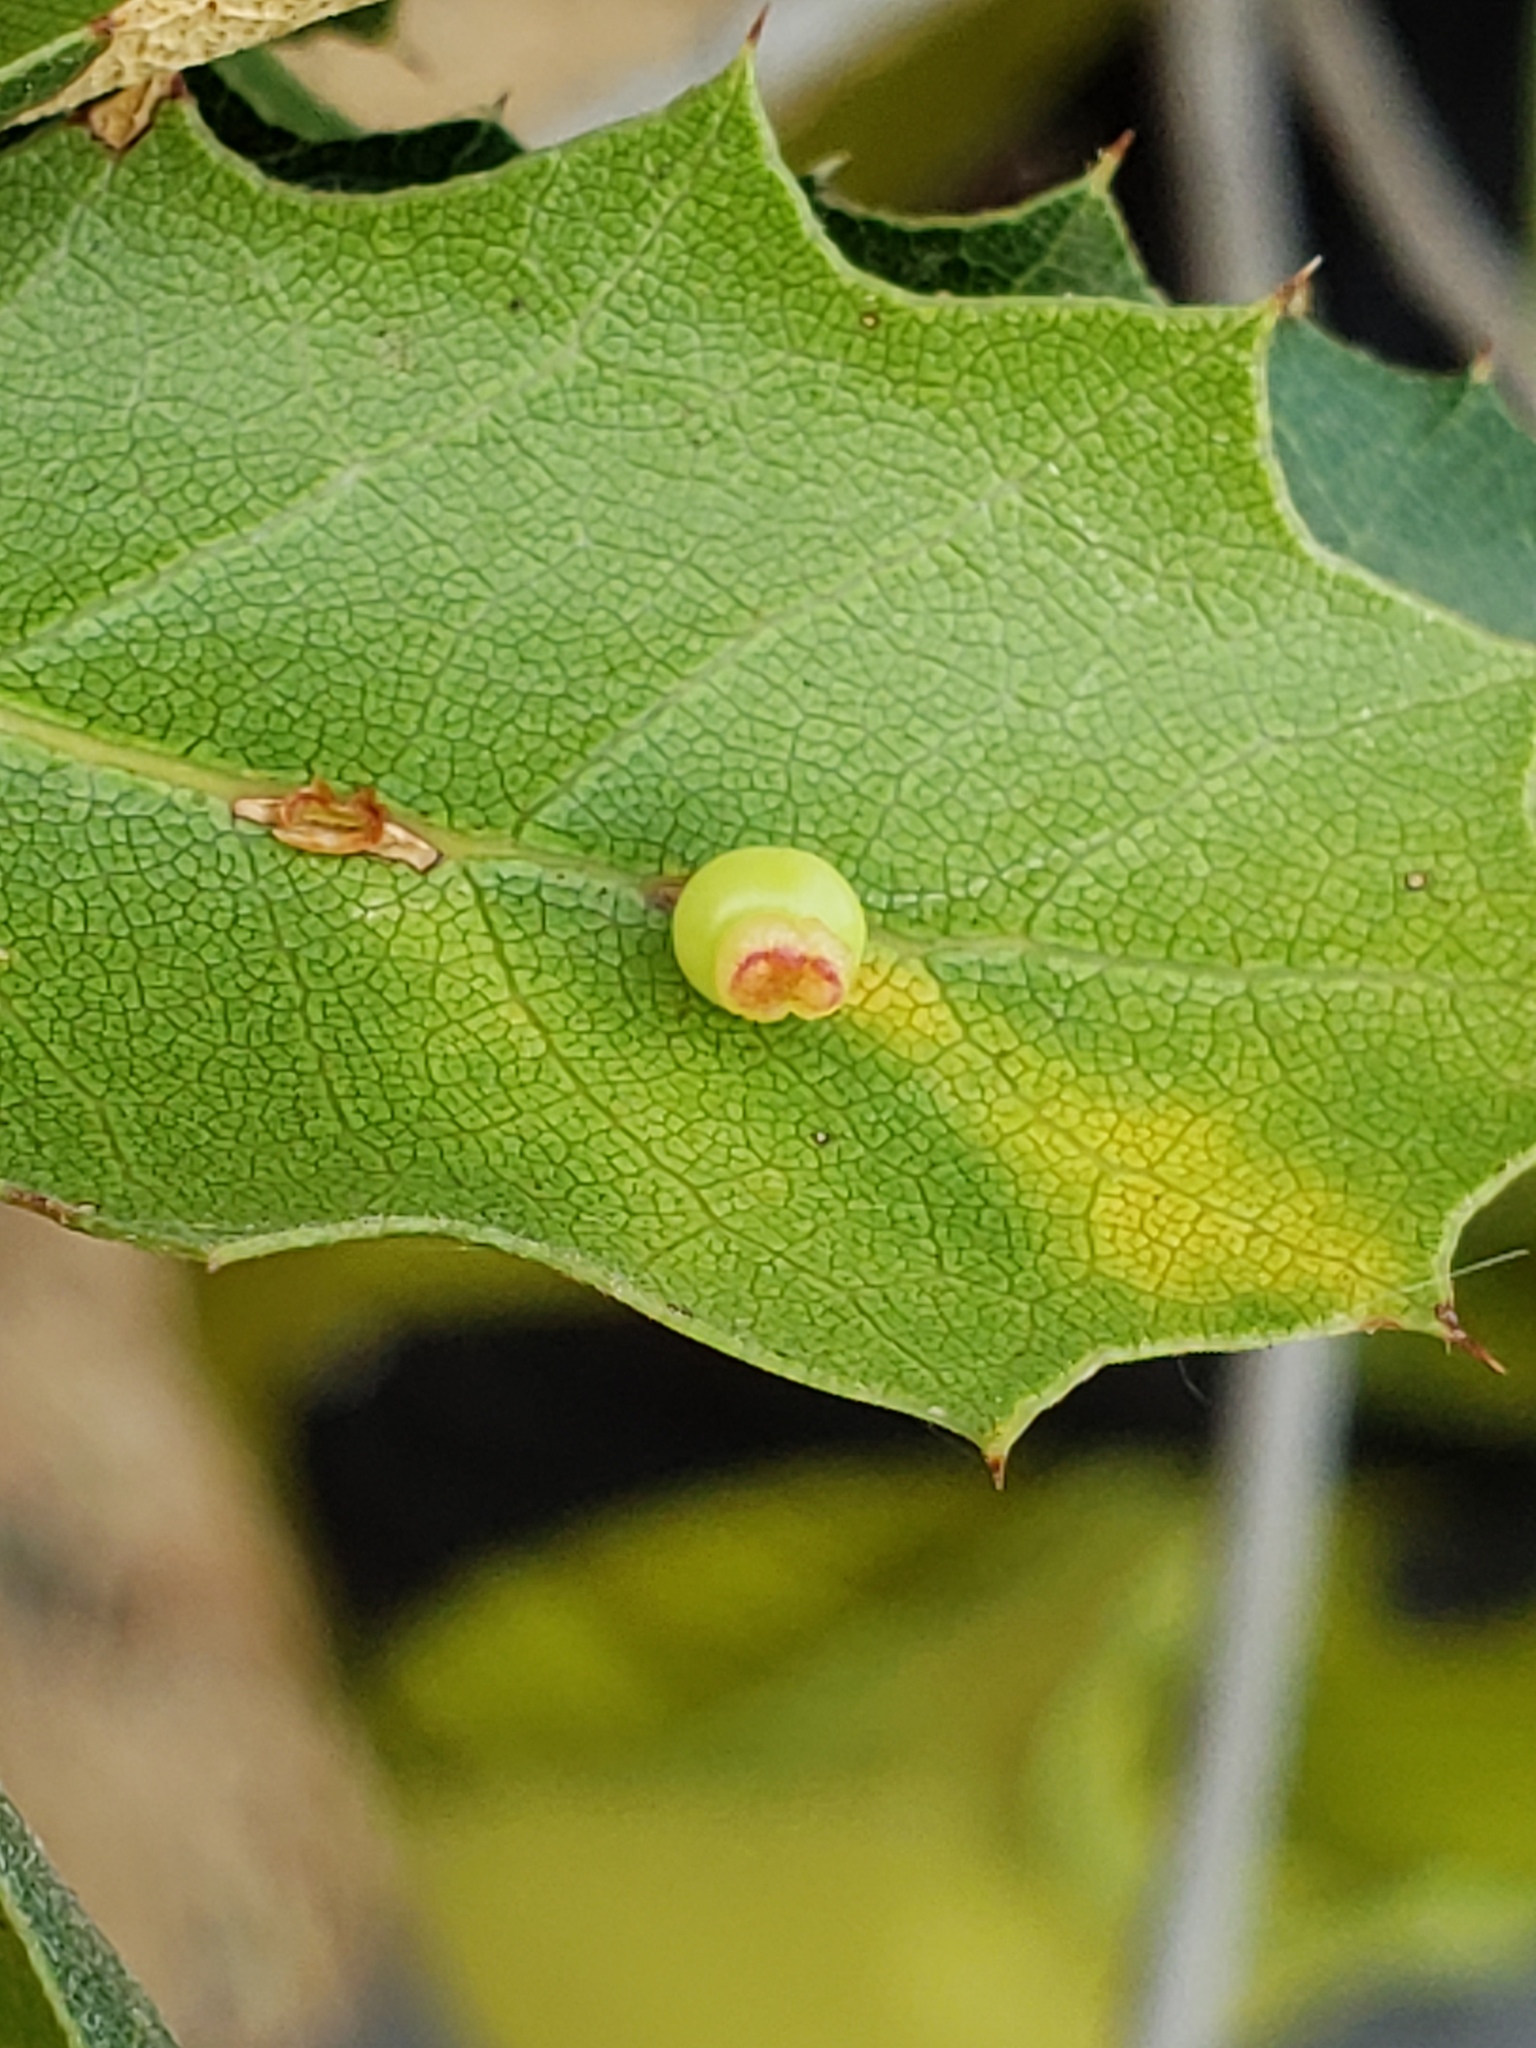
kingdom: Animalia
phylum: Arthropoda
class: Insecta
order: Hymenoptera
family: Cynipidae
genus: Callirhytis
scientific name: Callirhytis
